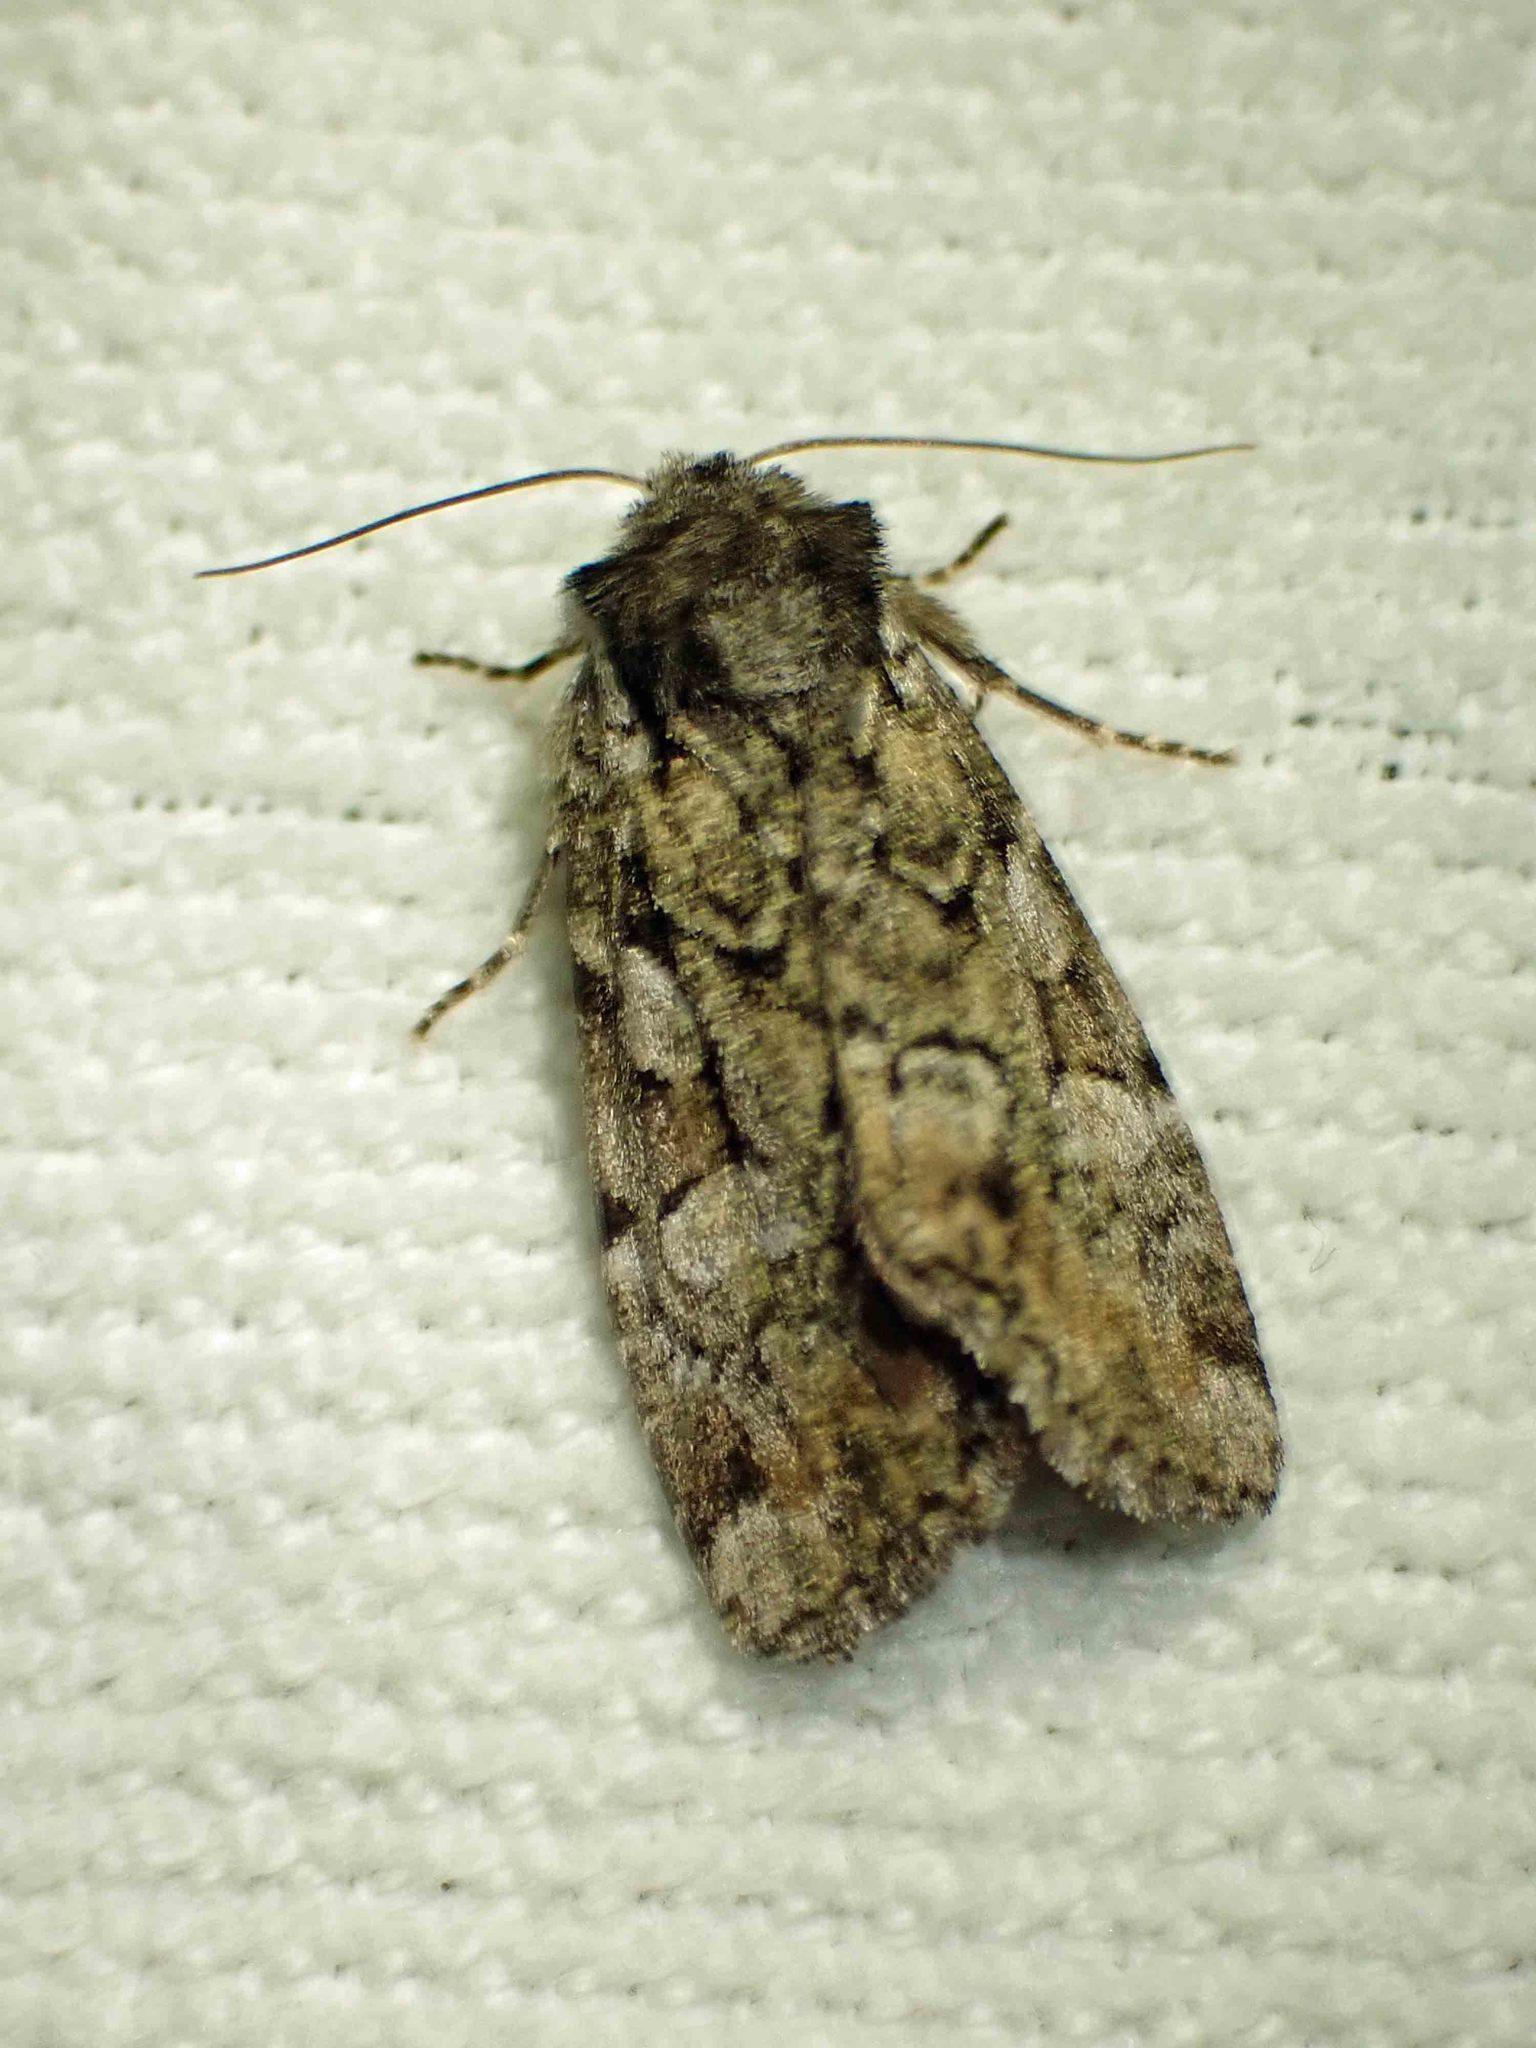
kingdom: Animalia
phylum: Arthropoda
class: Insecta
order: Lepidoptera
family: Noctuidae
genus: Aplectoides
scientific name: Aplectoides condita
